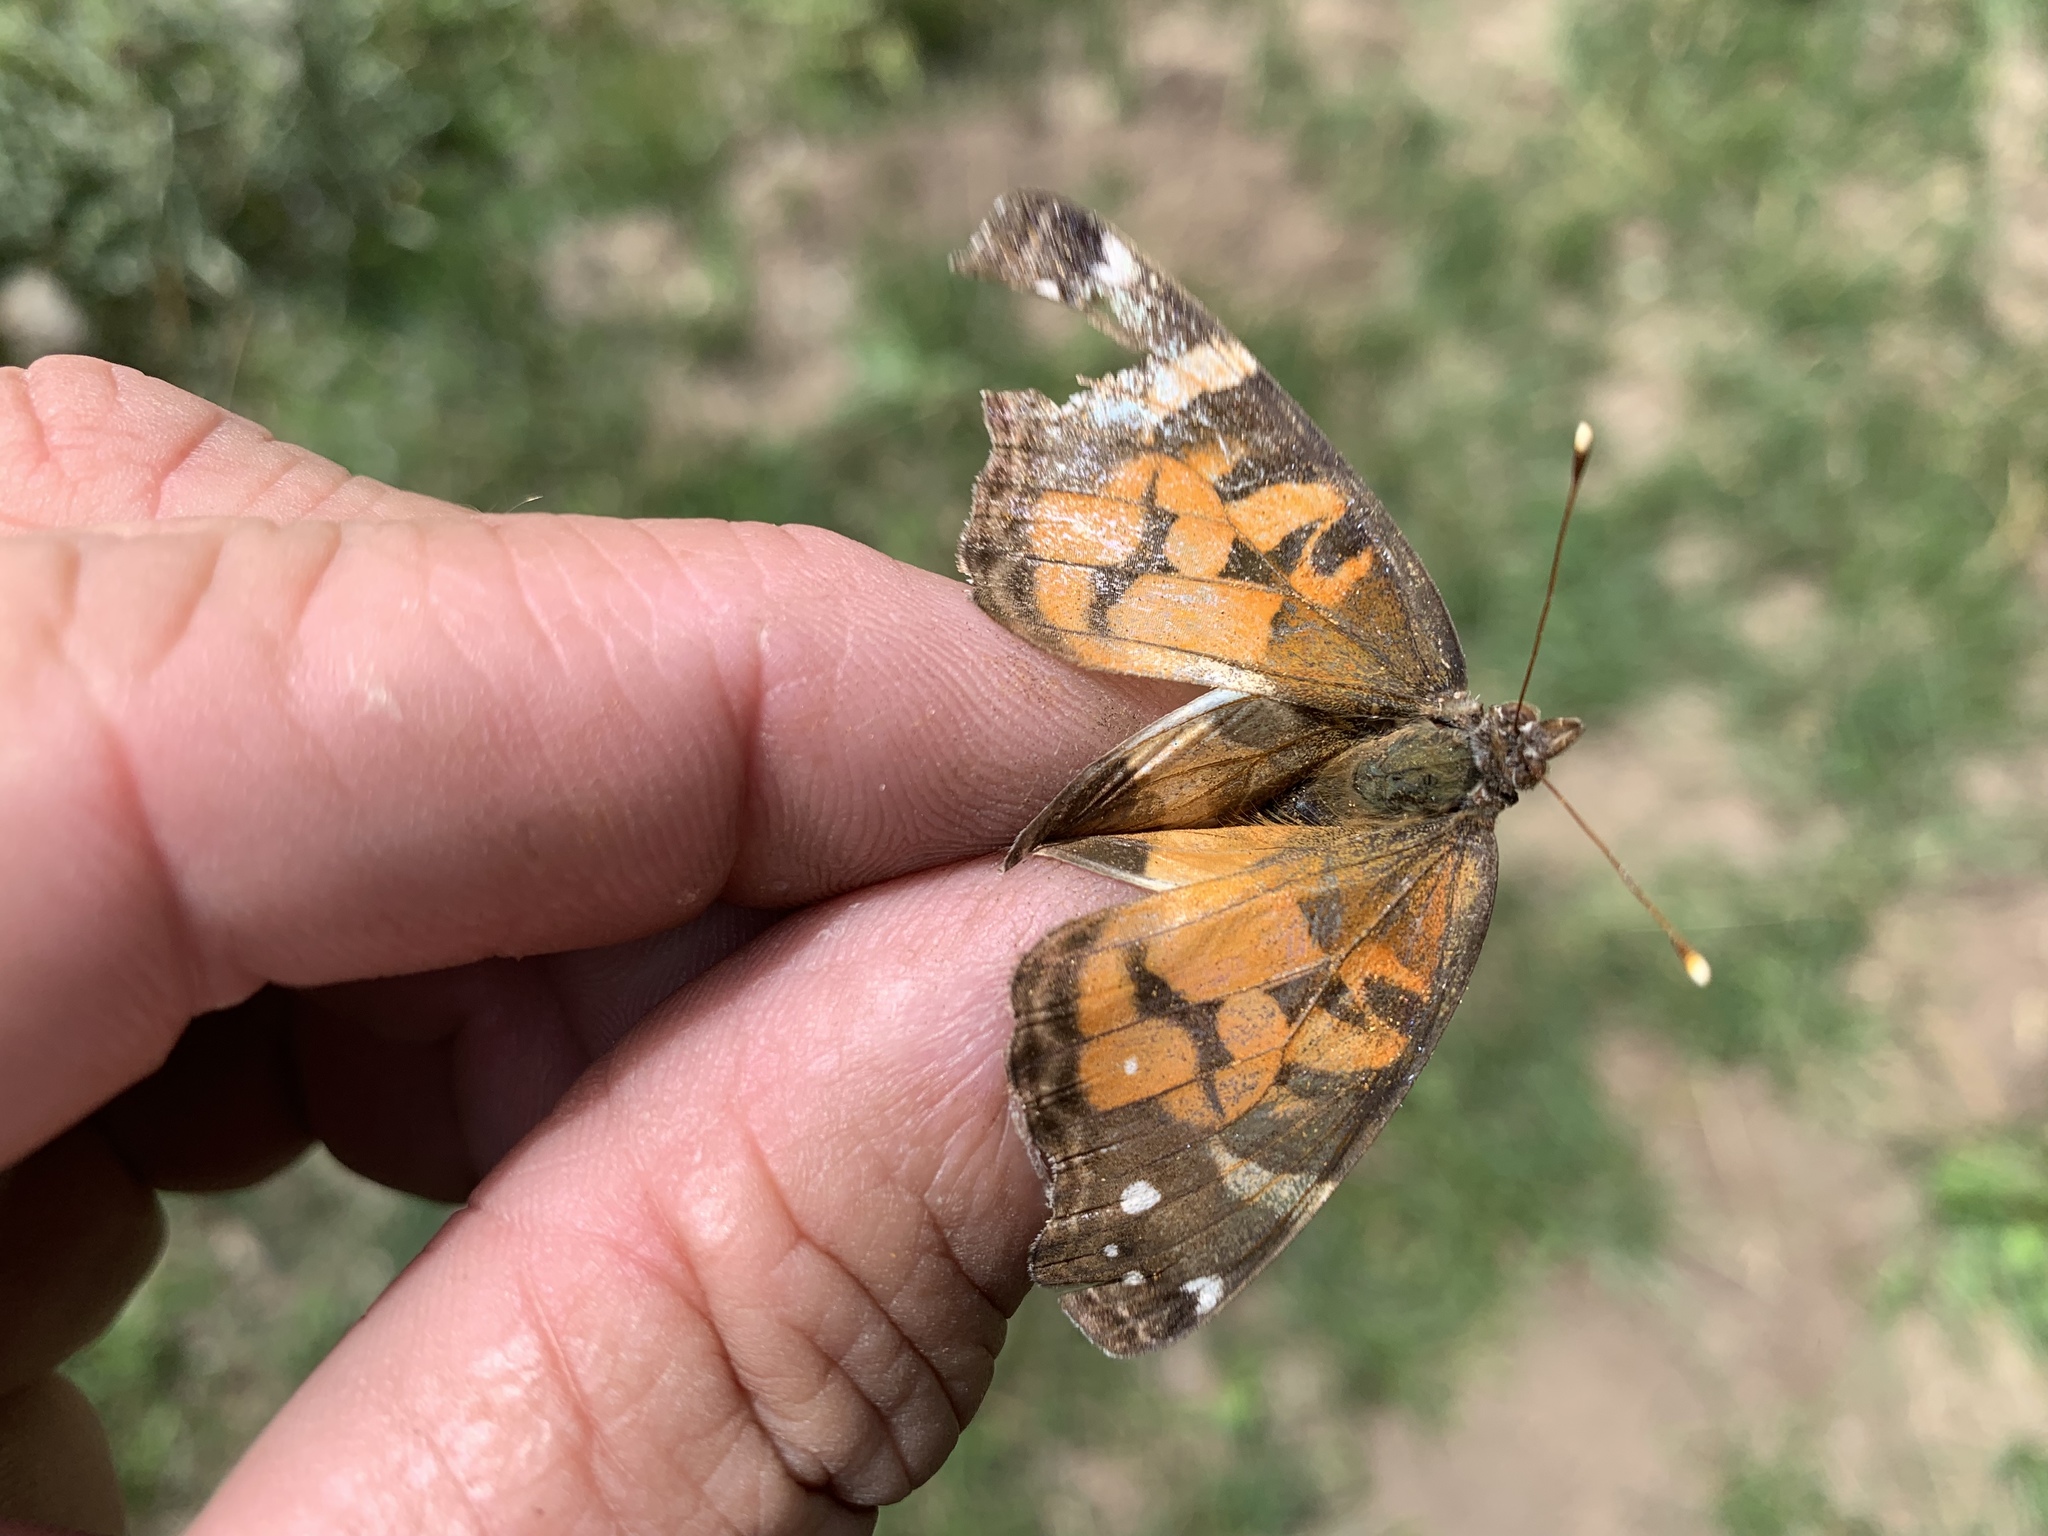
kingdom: Animalia
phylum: Arthropoda
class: Insecta
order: Lepidoptera
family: Nymphalidae
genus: Vanessa
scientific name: Vanessa virginiensis
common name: American lady
